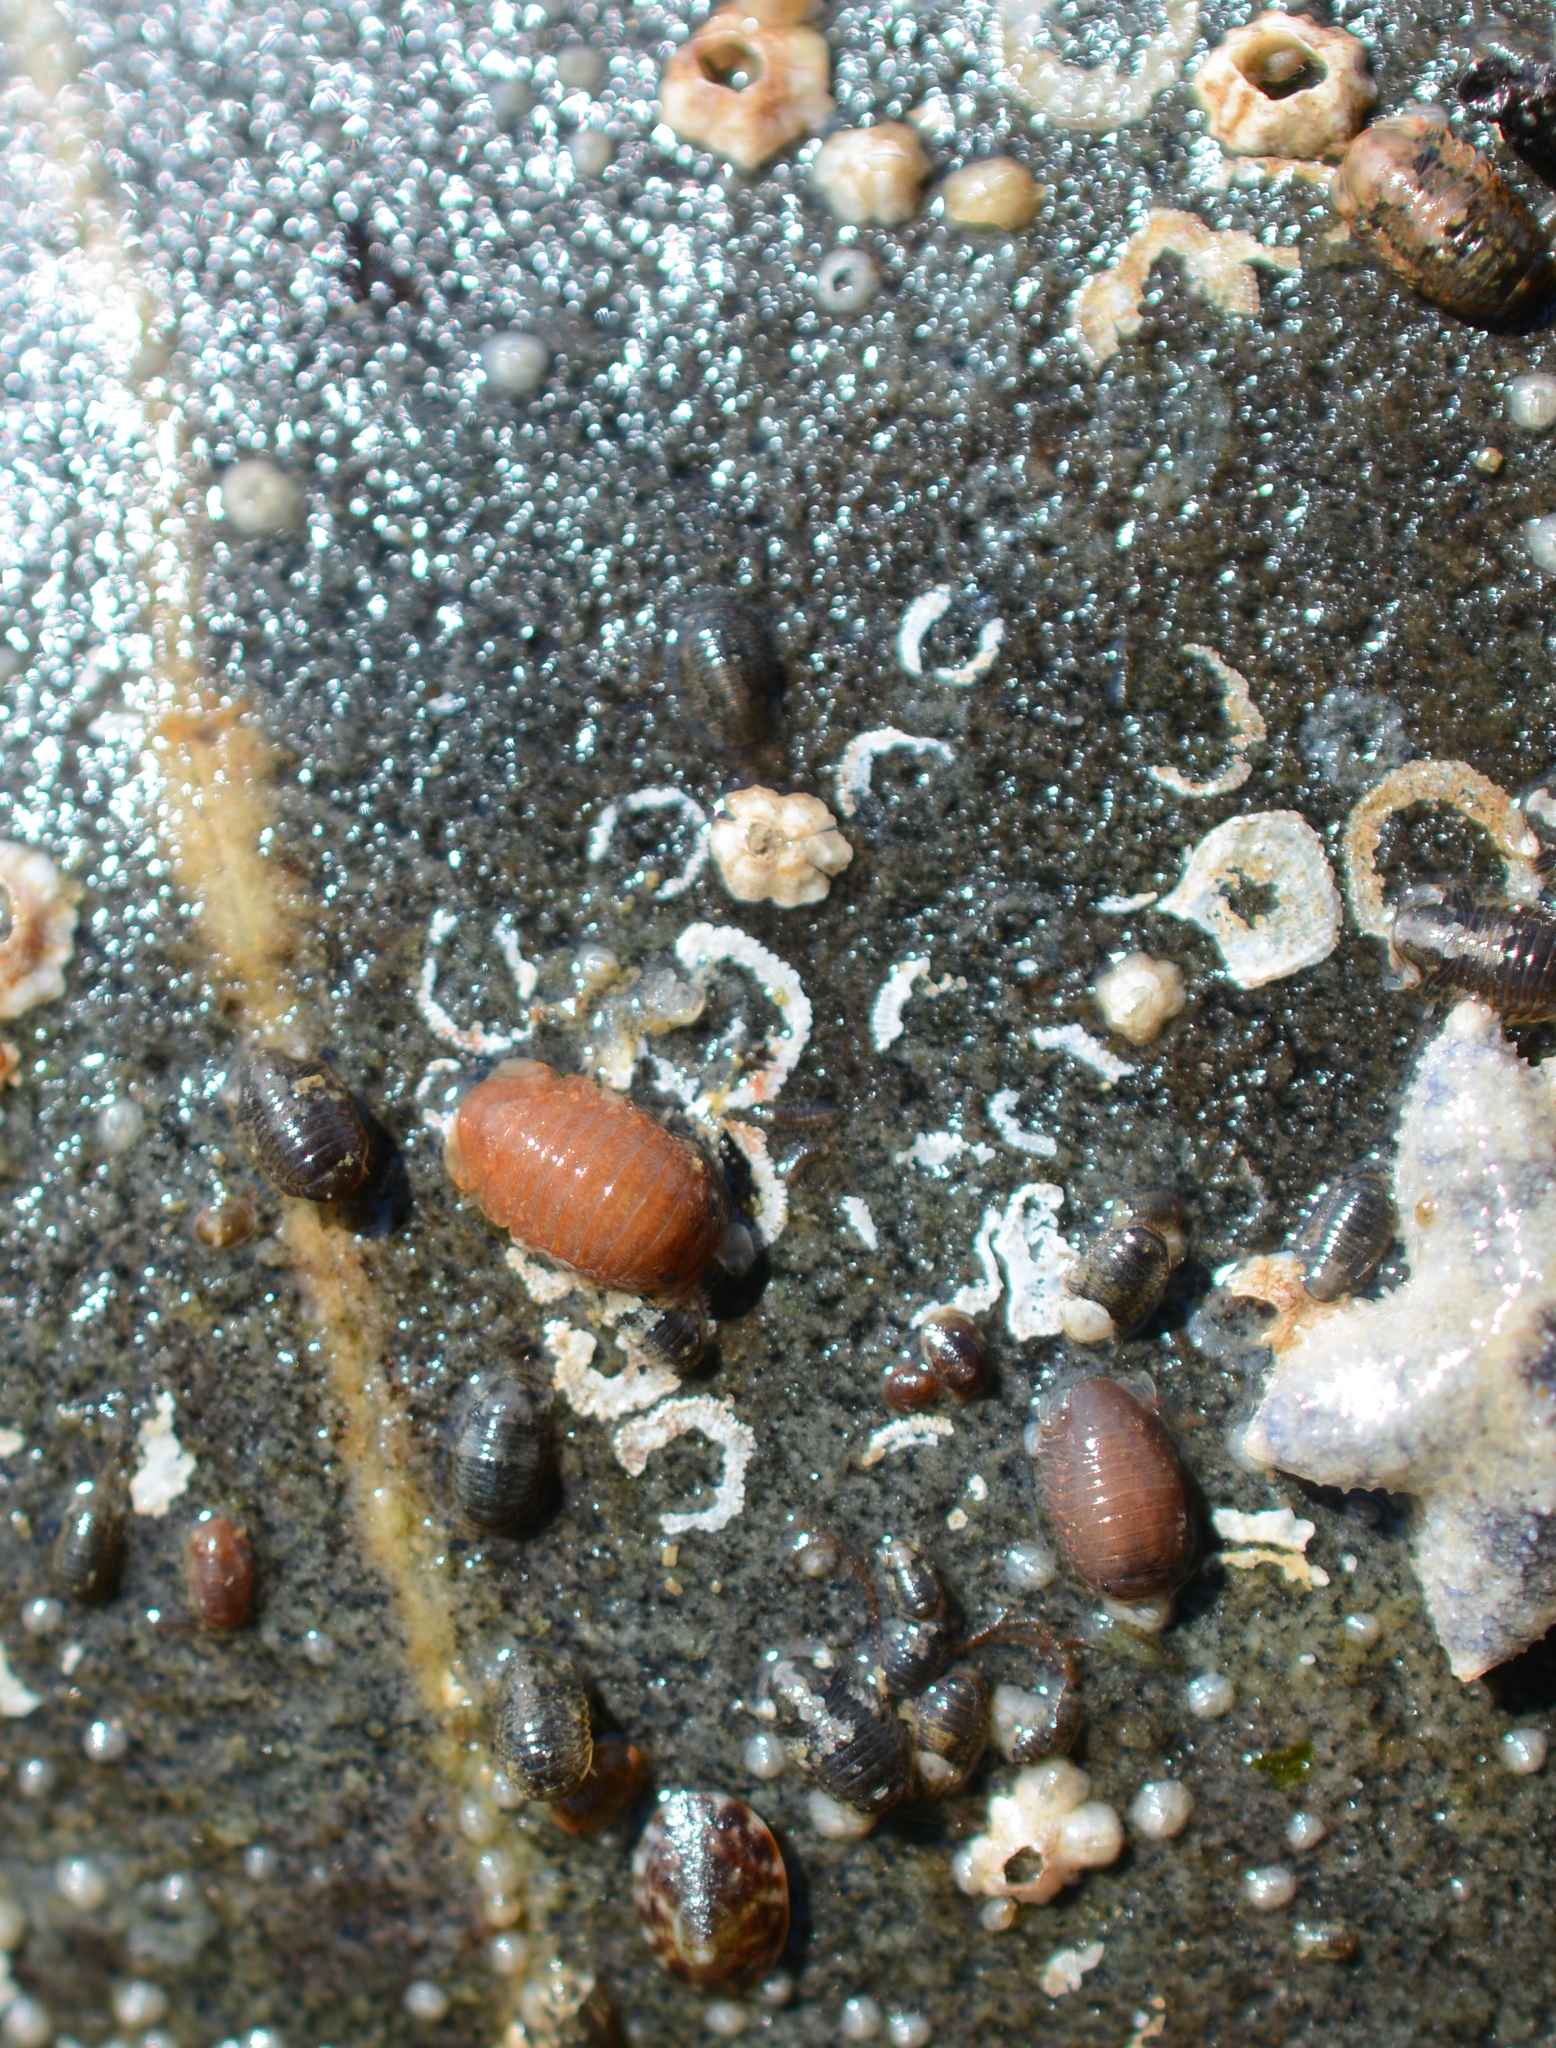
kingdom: Animalia
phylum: Arthropoda
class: Malacostraca
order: Isopoda
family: Sphaeromatidae
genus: Gnorimosphaeroma
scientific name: Gnorimosphaeroma oregonense
